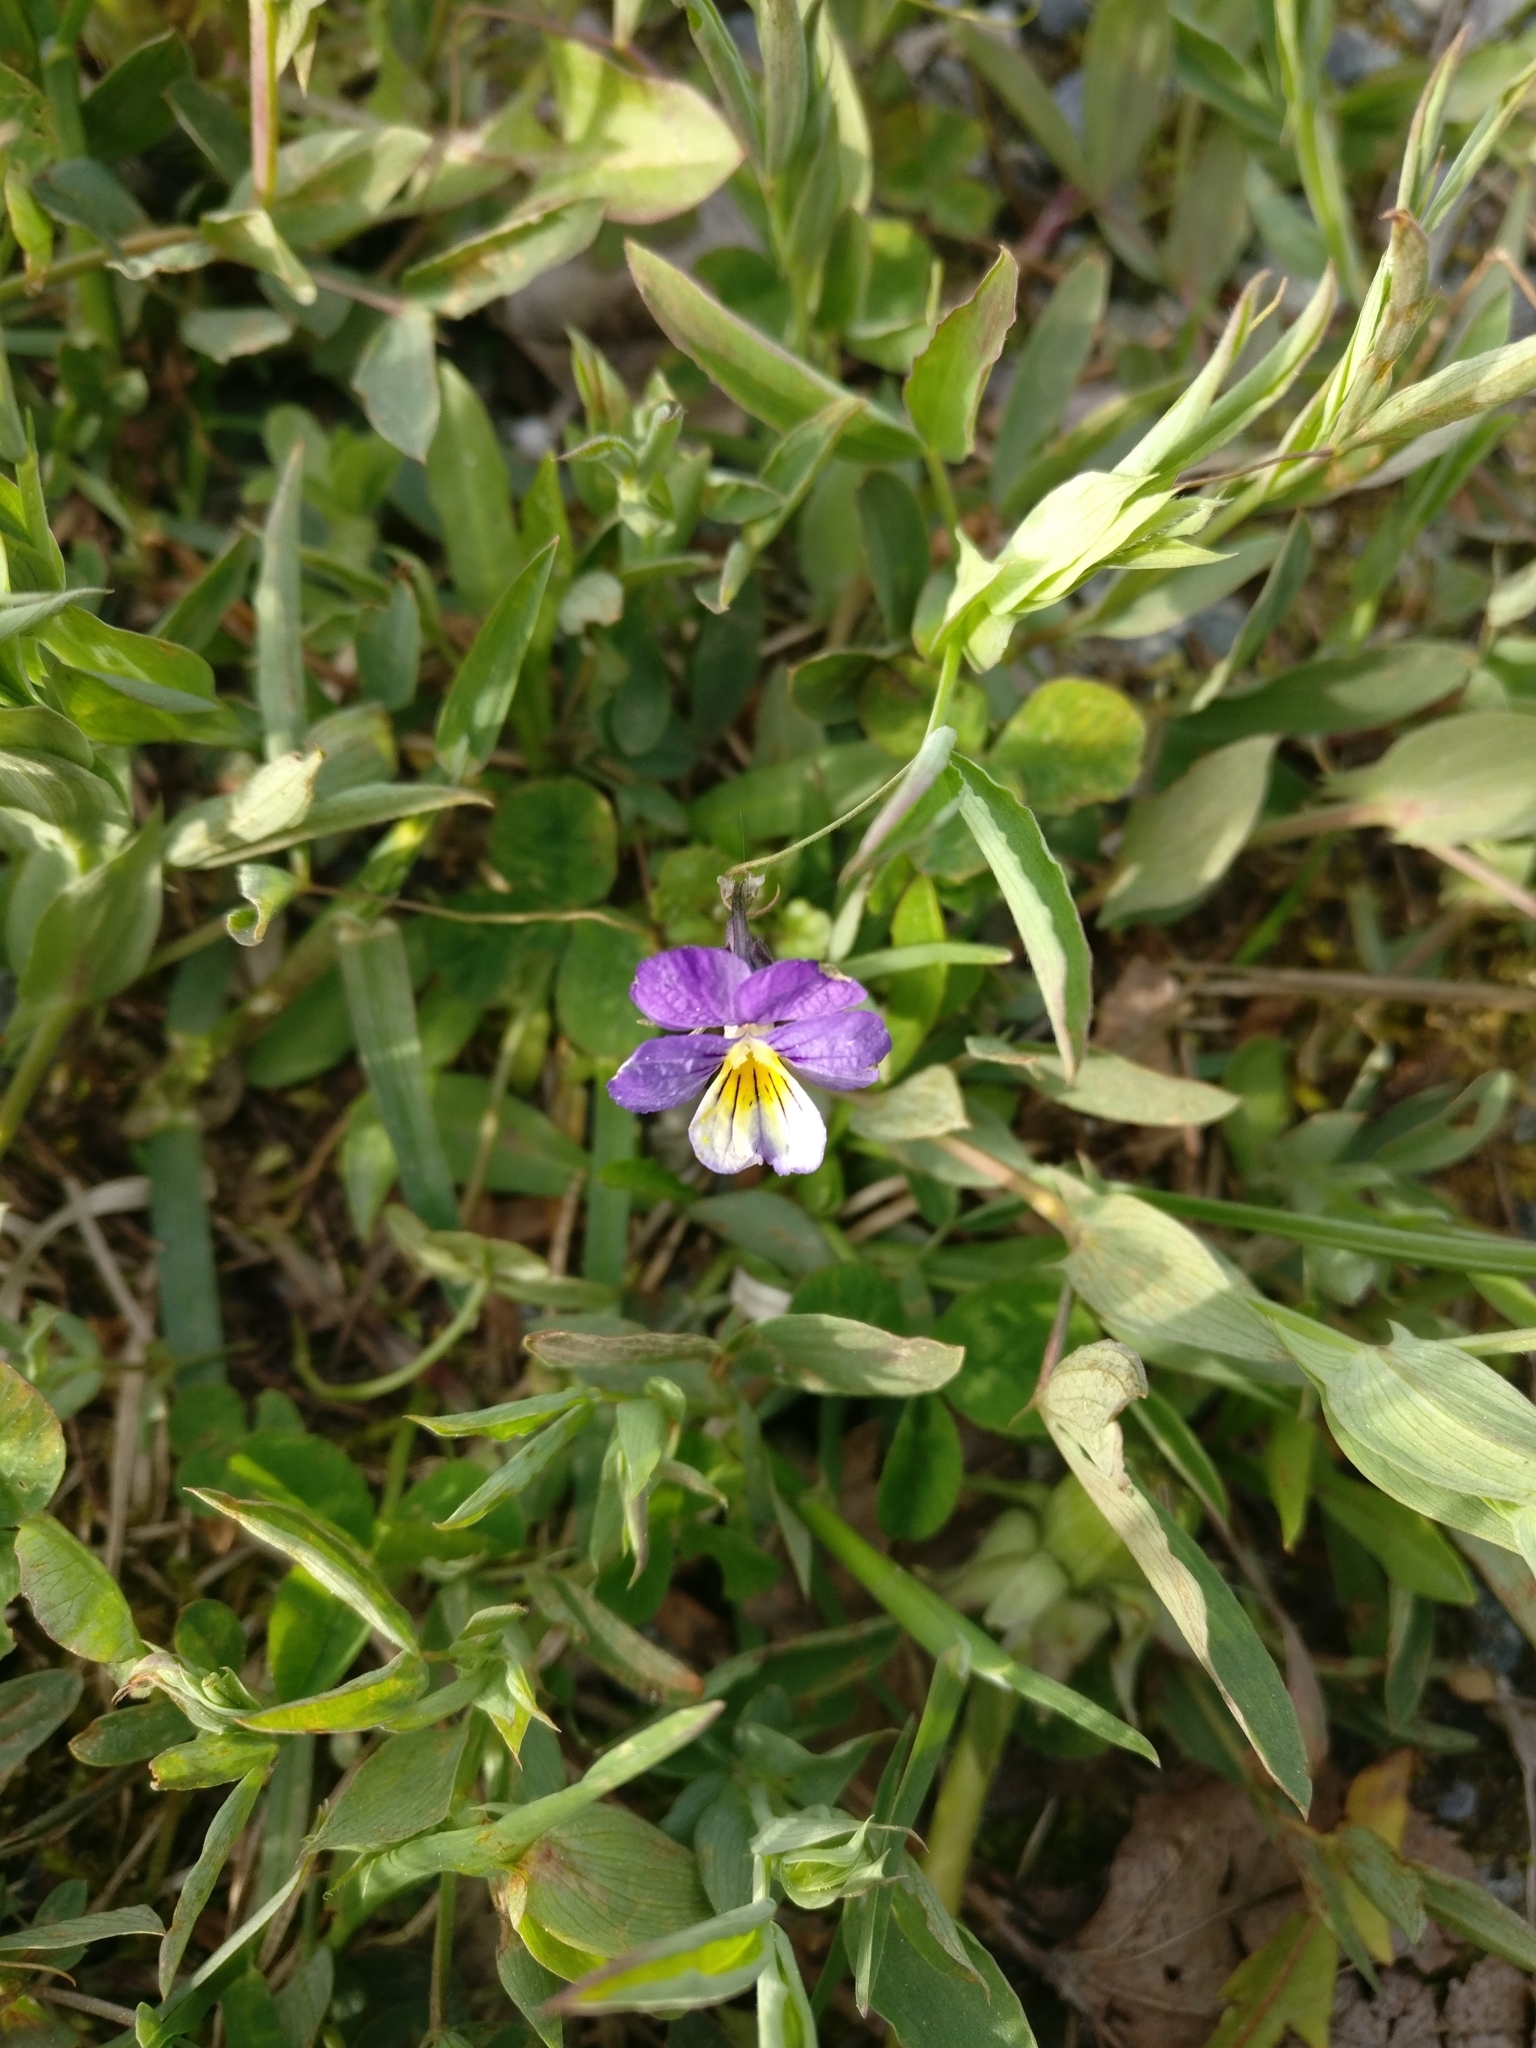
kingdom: Plantae
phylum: Tracheophyta
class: Magnoliopsida
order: Malpighiales
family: Violaceae
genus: Viola
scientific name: Viola tricolor
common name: Pansy
